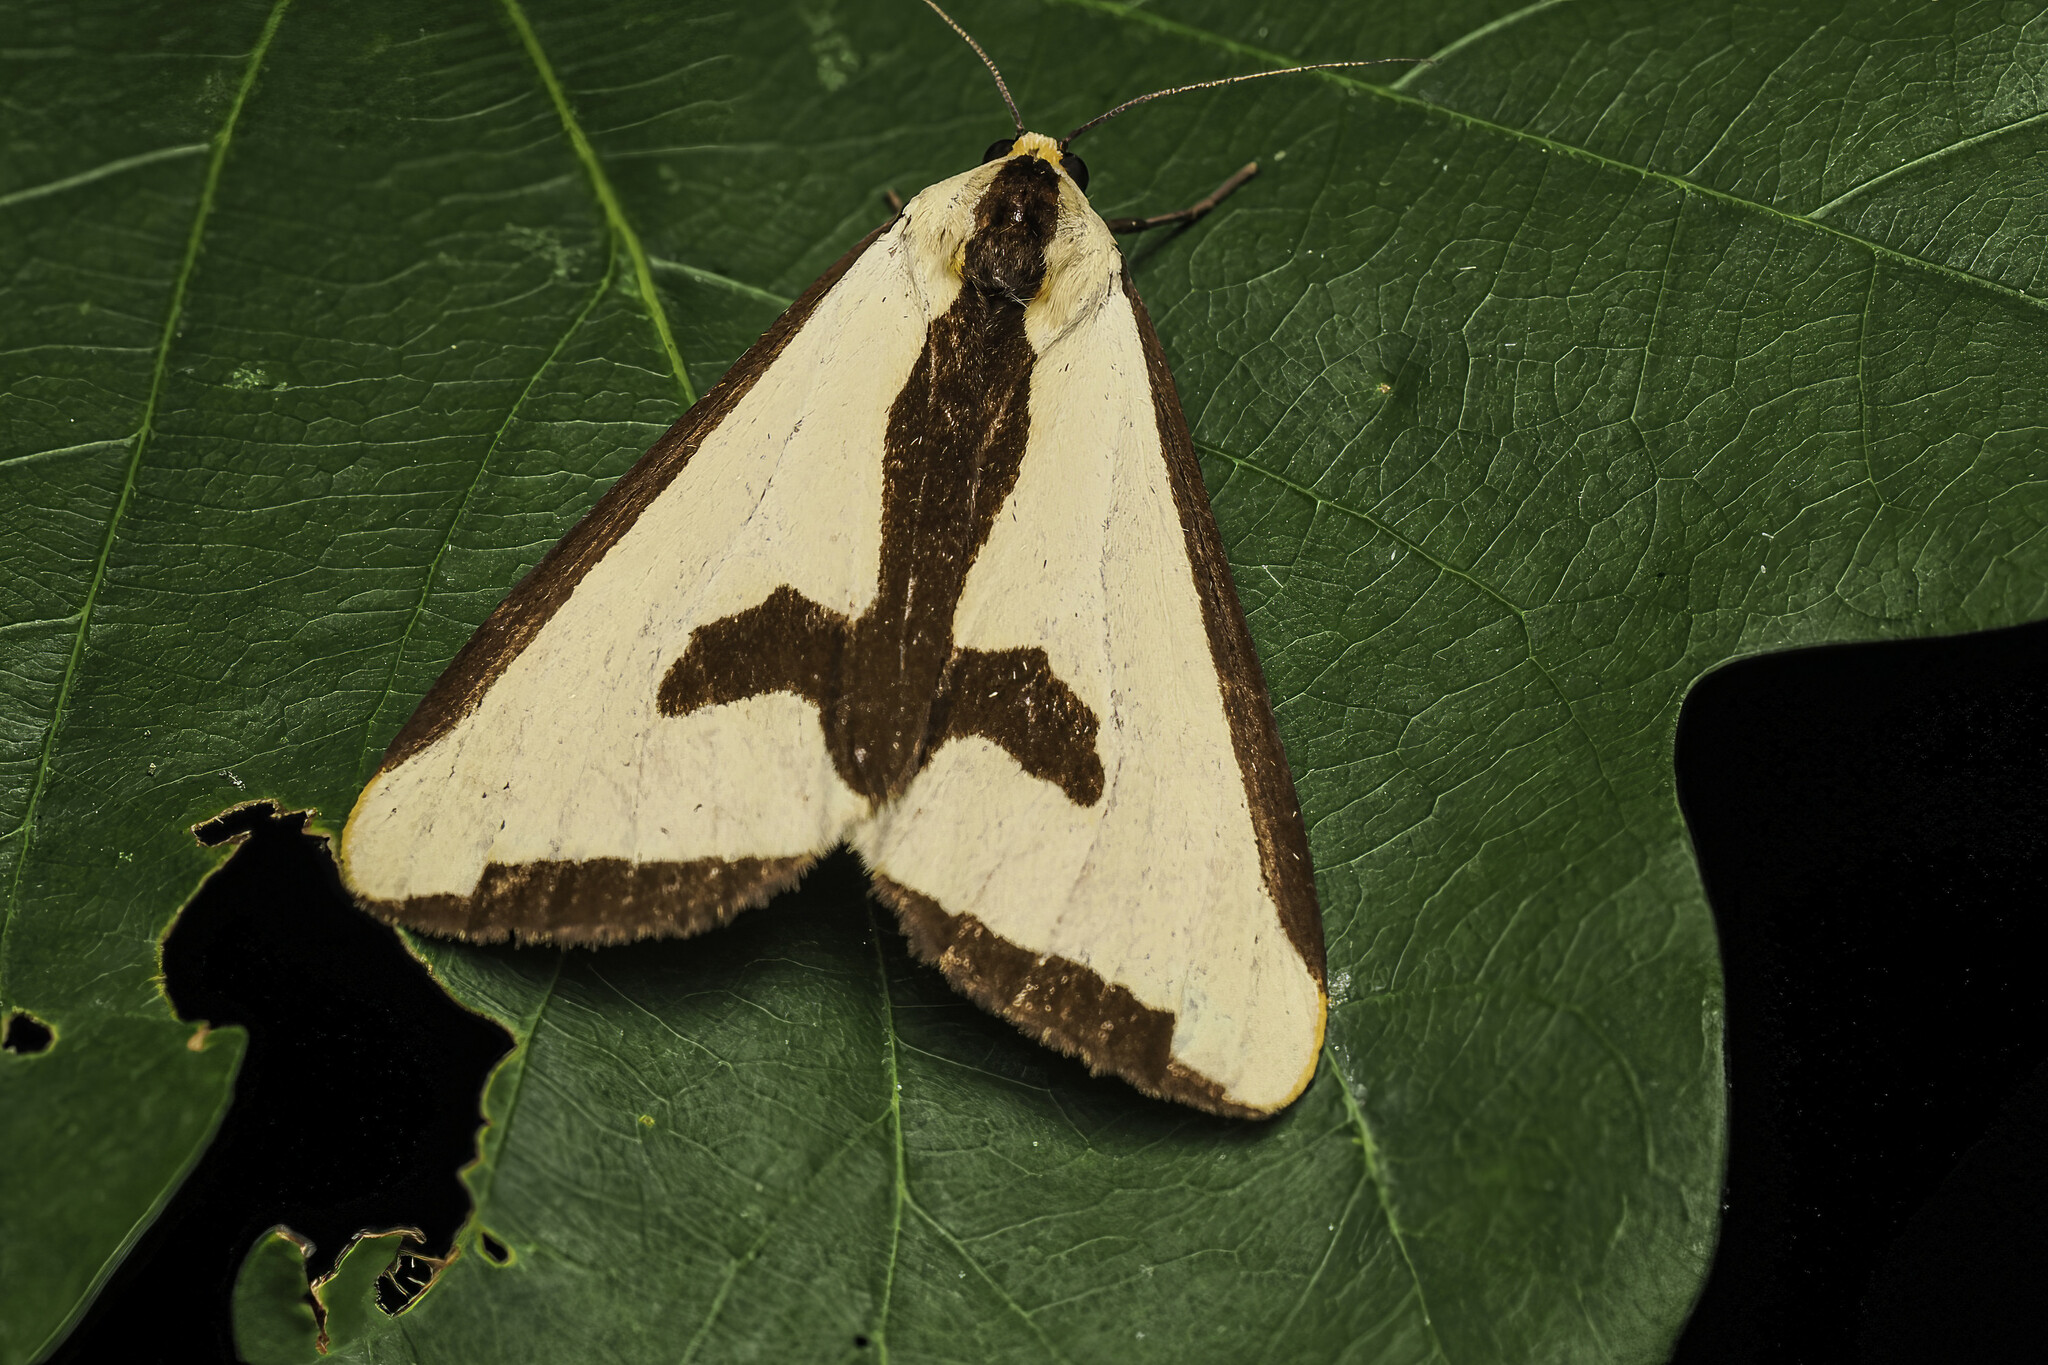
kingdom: Animalia
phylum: Arthropoda
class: Insecta
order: Lepidoptera
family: Erebidae
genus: Haploa
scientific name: Haploa clymene
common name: Clymene moth
